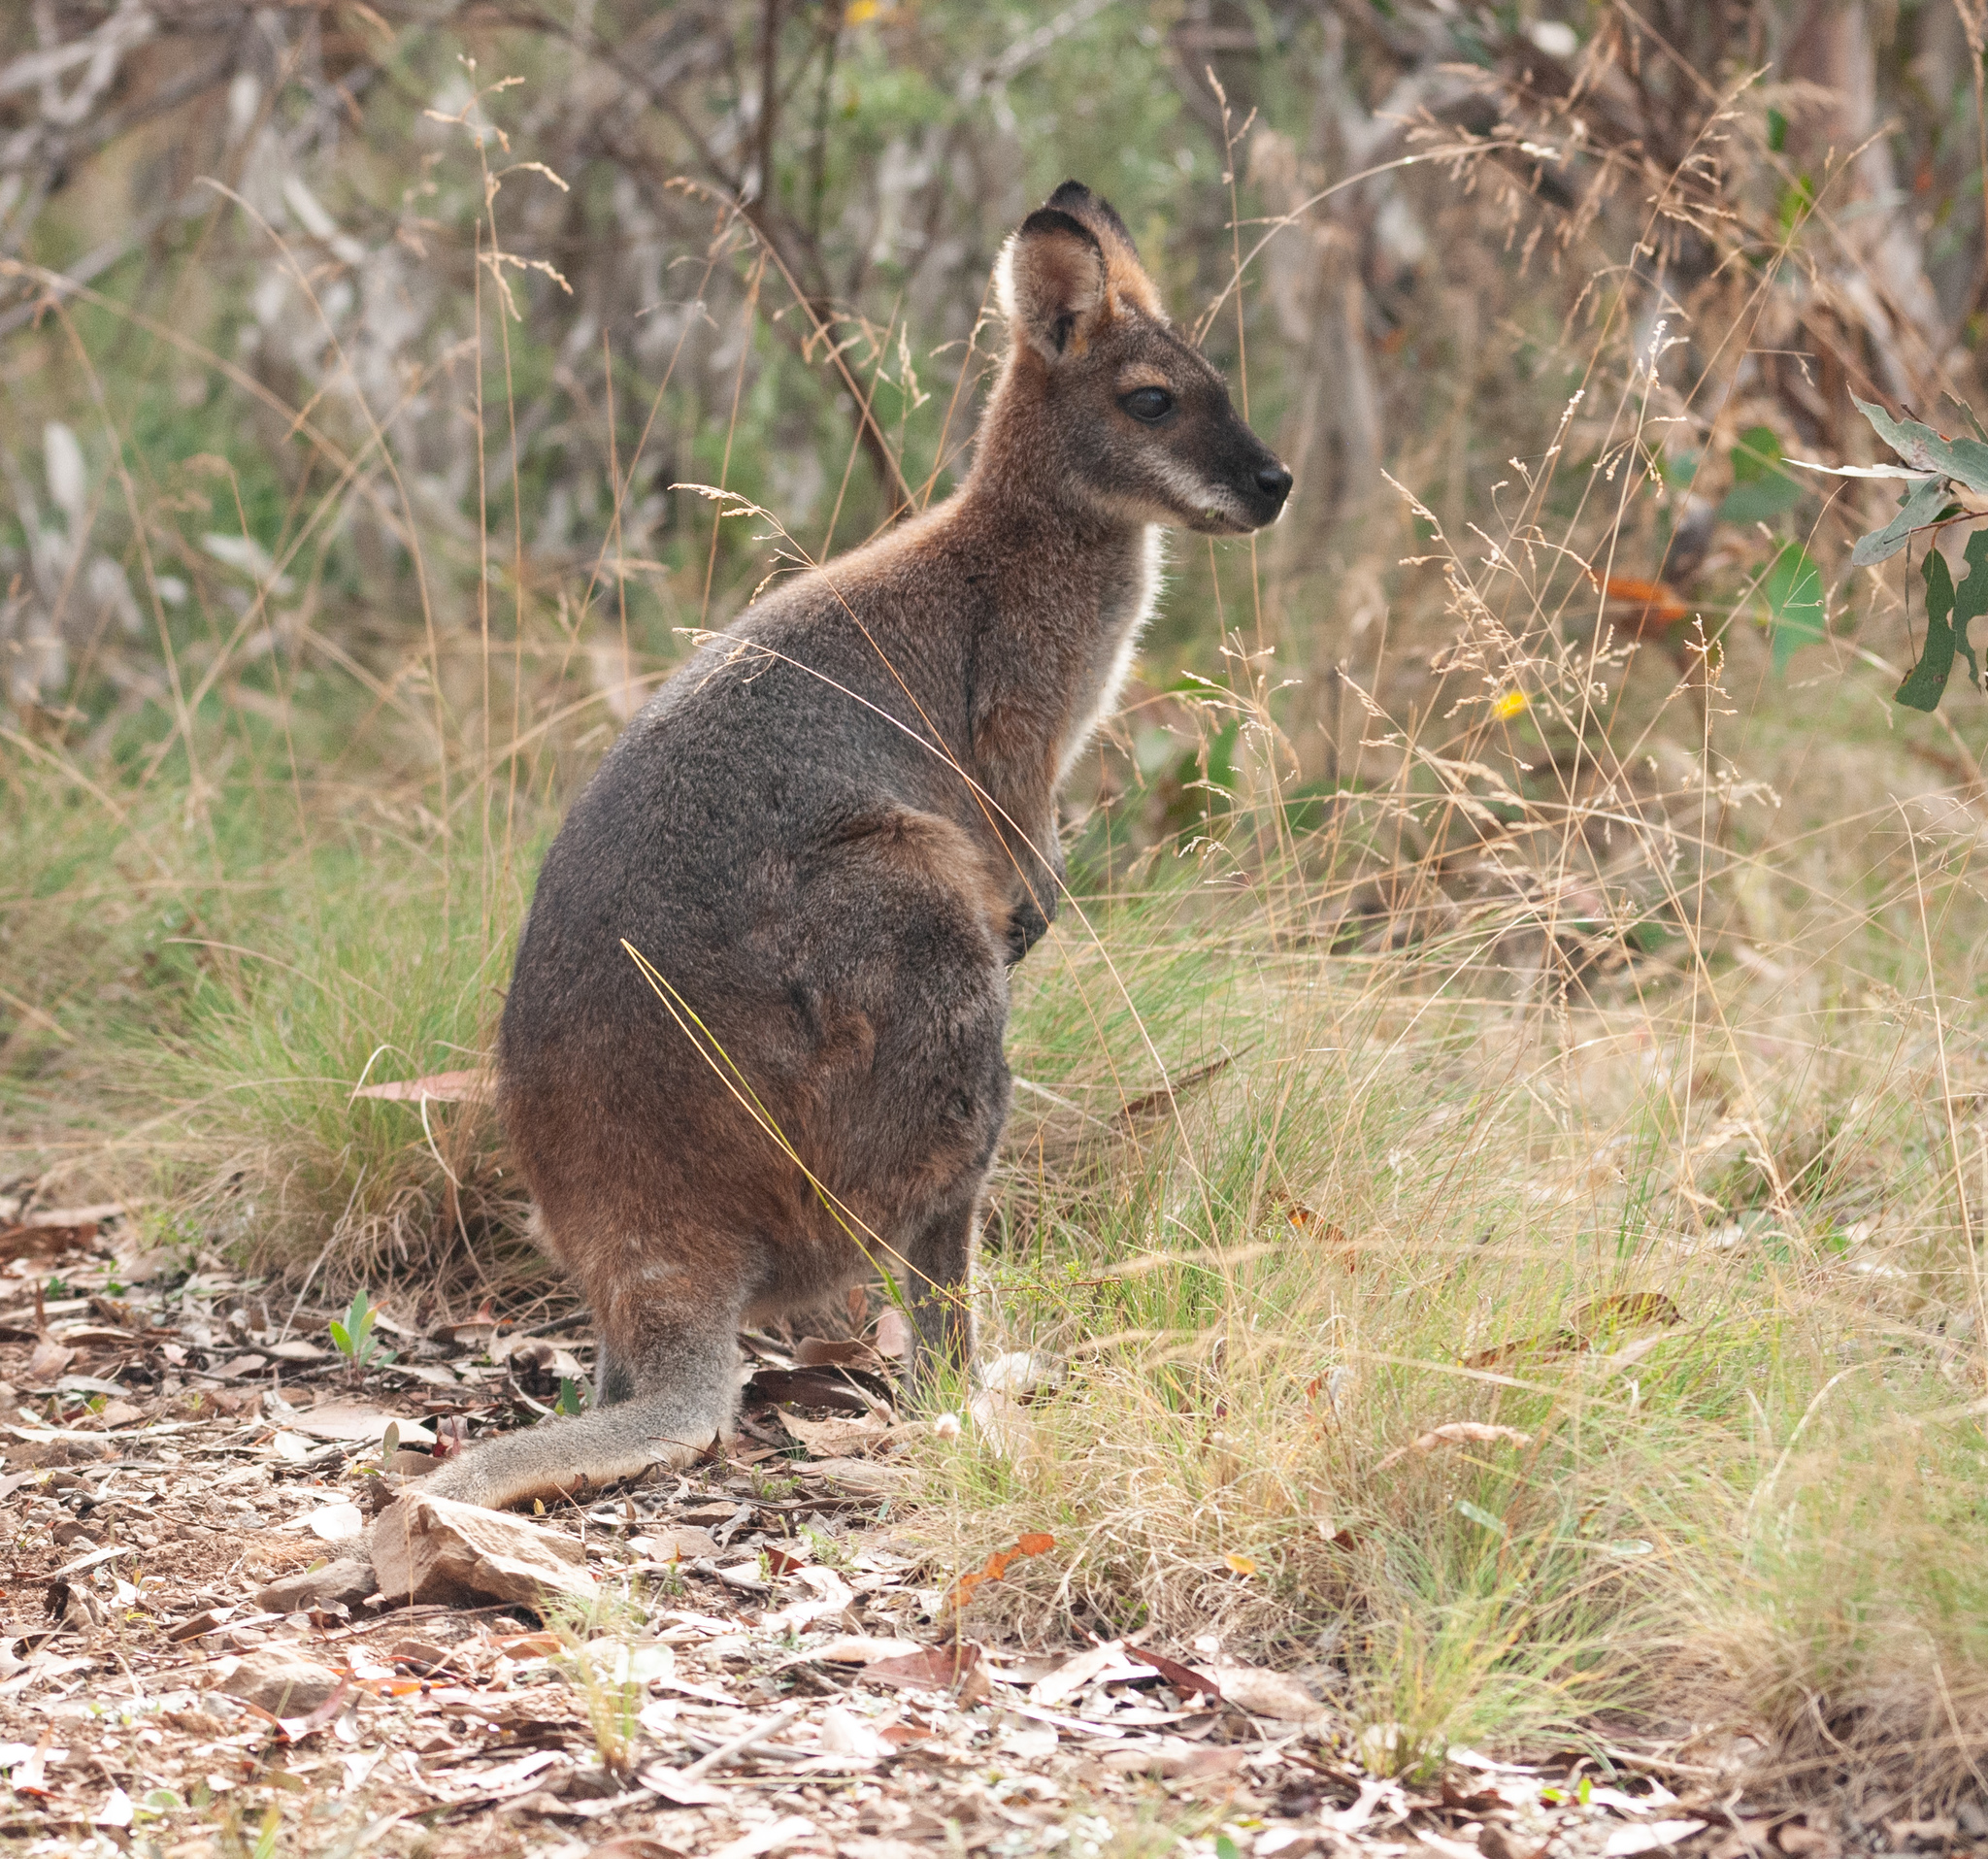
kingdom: Animalia
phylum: Chordata
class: Mammalia
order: Diprotodontia
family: Macropodidae
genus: Notamacropus
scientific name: Notamacropus rufogriseus
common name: Red-necked wallaby
